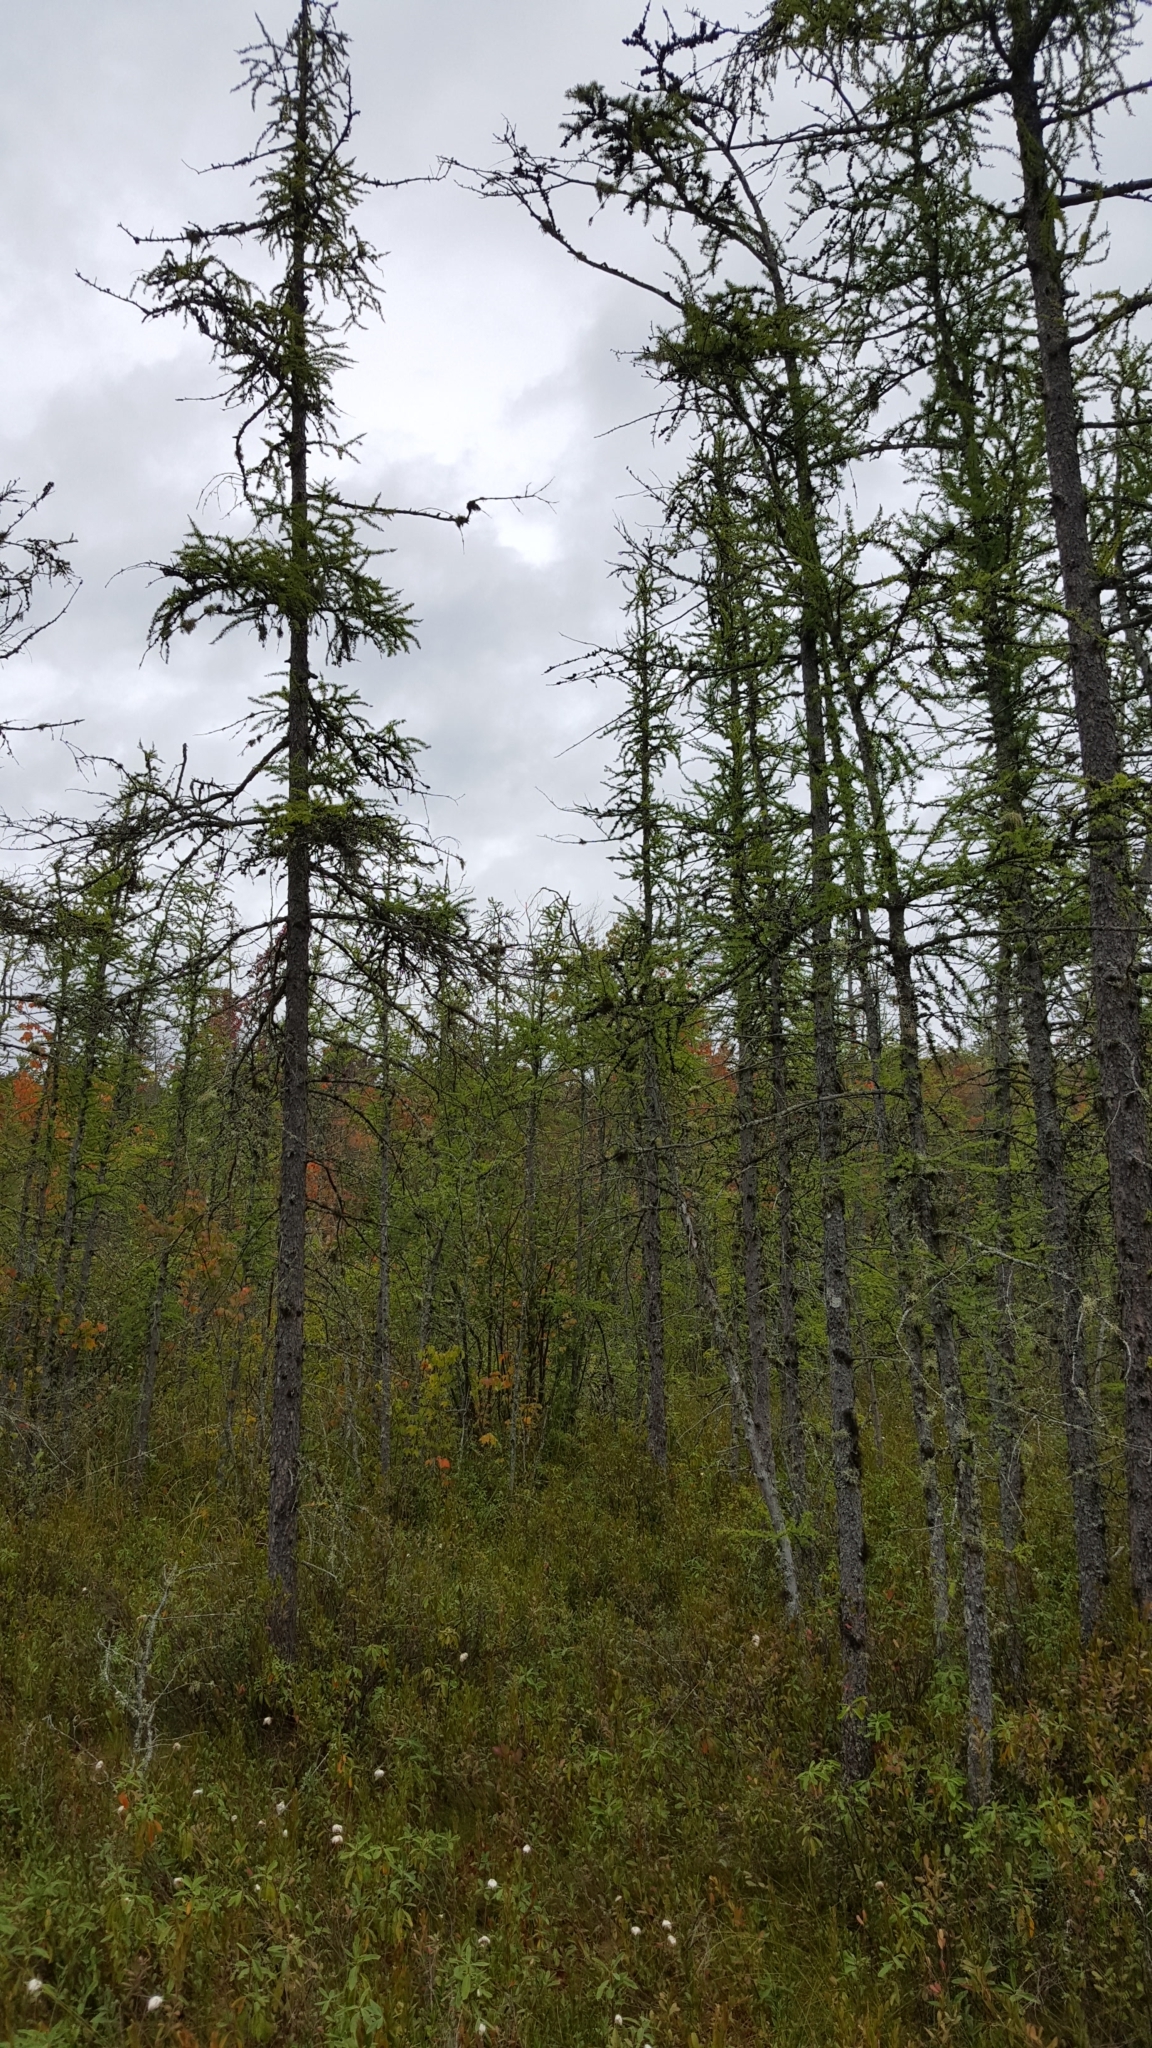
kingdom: Plantae
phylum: Tracheophyta
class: Pinopsida
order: Pinales
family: Pinaceae
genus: Larix
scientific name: Larix laricina
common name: American larch
